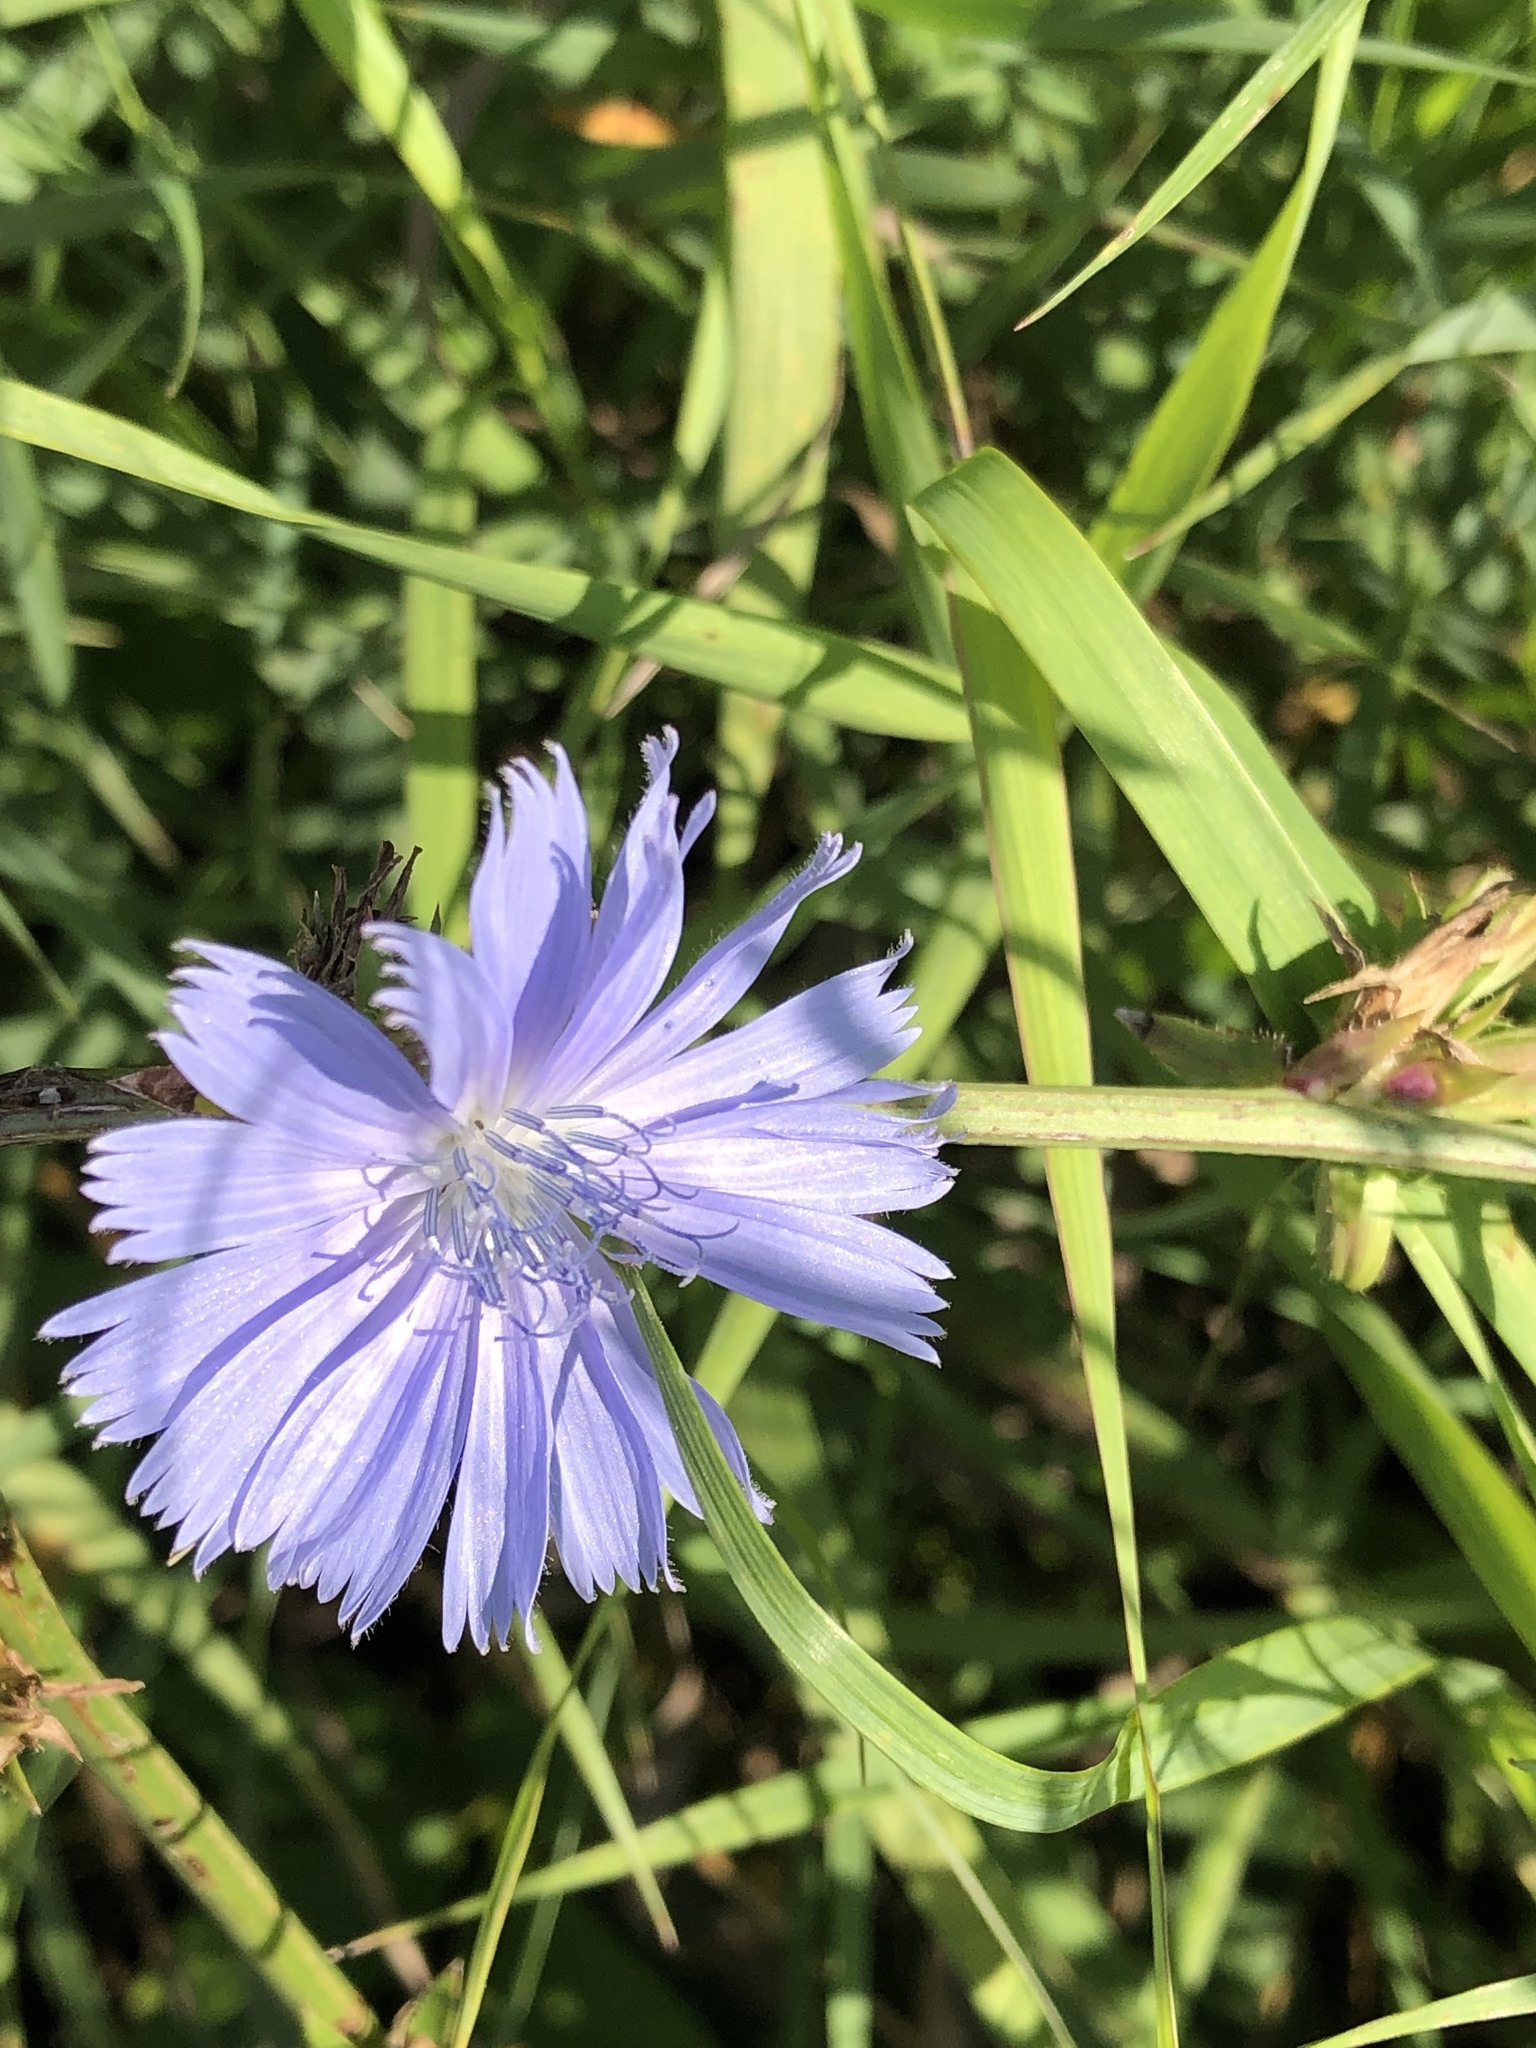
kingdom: Plantae
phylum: Tracheophyta
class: Magnoliopsida
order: Asterales
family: Asteraceae
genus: Cichorium
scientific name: Cichorium intybus
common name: Chicory
